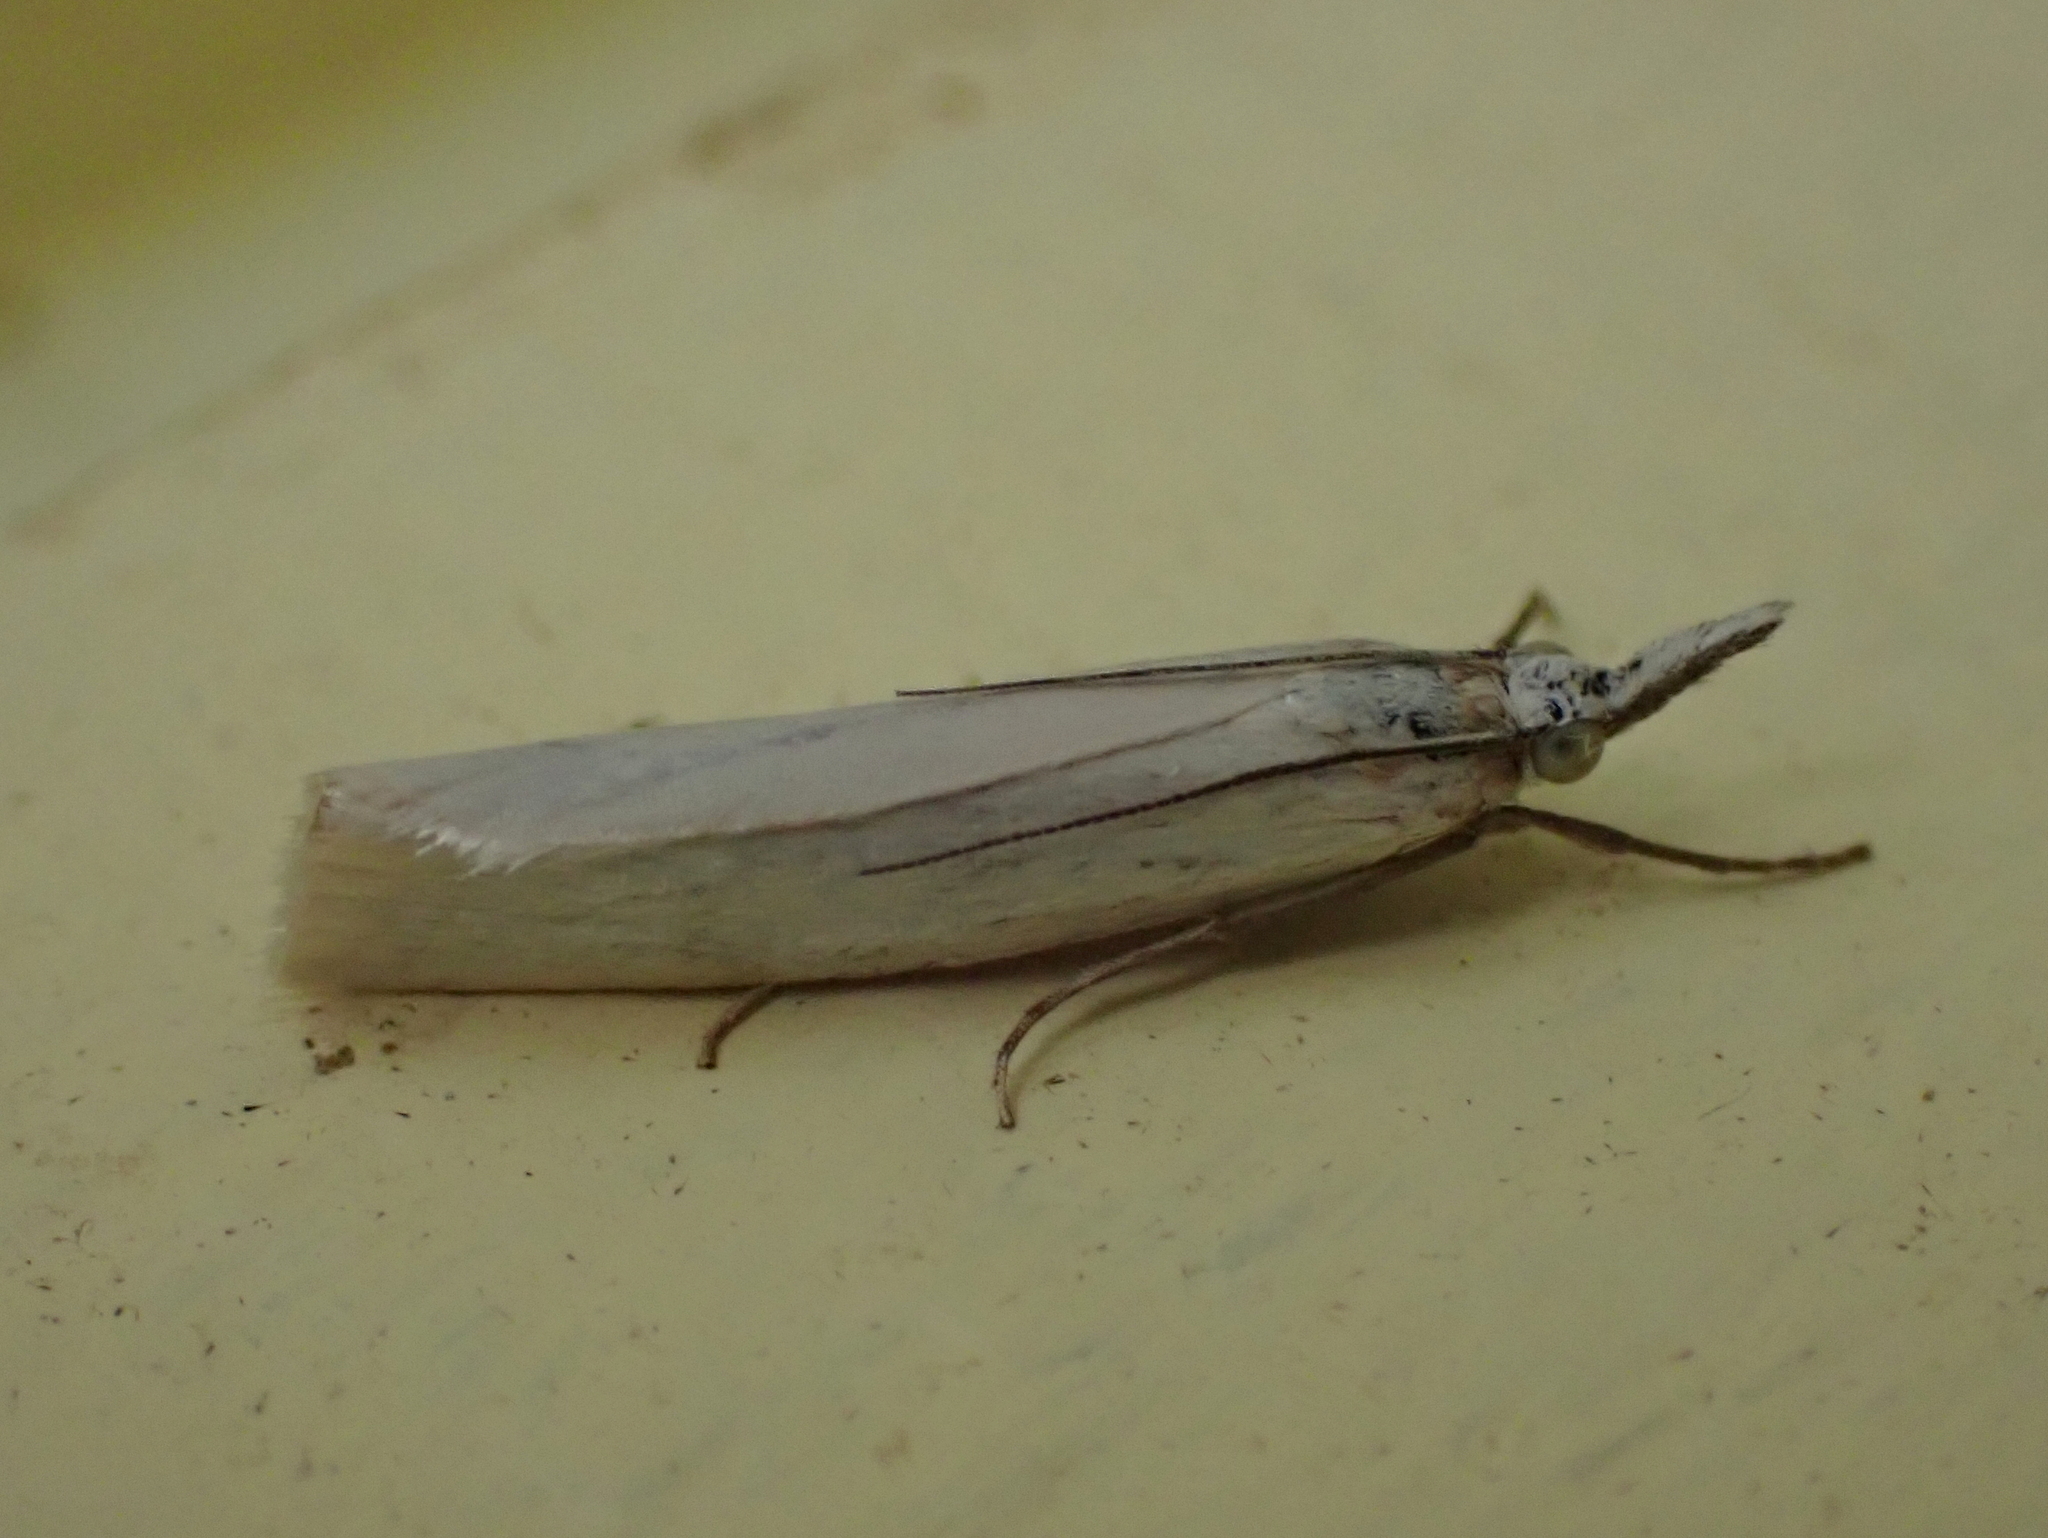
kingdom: Animalia
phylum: Arthropoda
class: Insecta
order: Lepidoptera
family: Crambidae
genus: Crambus
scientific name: Crambus perlellus
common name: Yellow satin veneer
